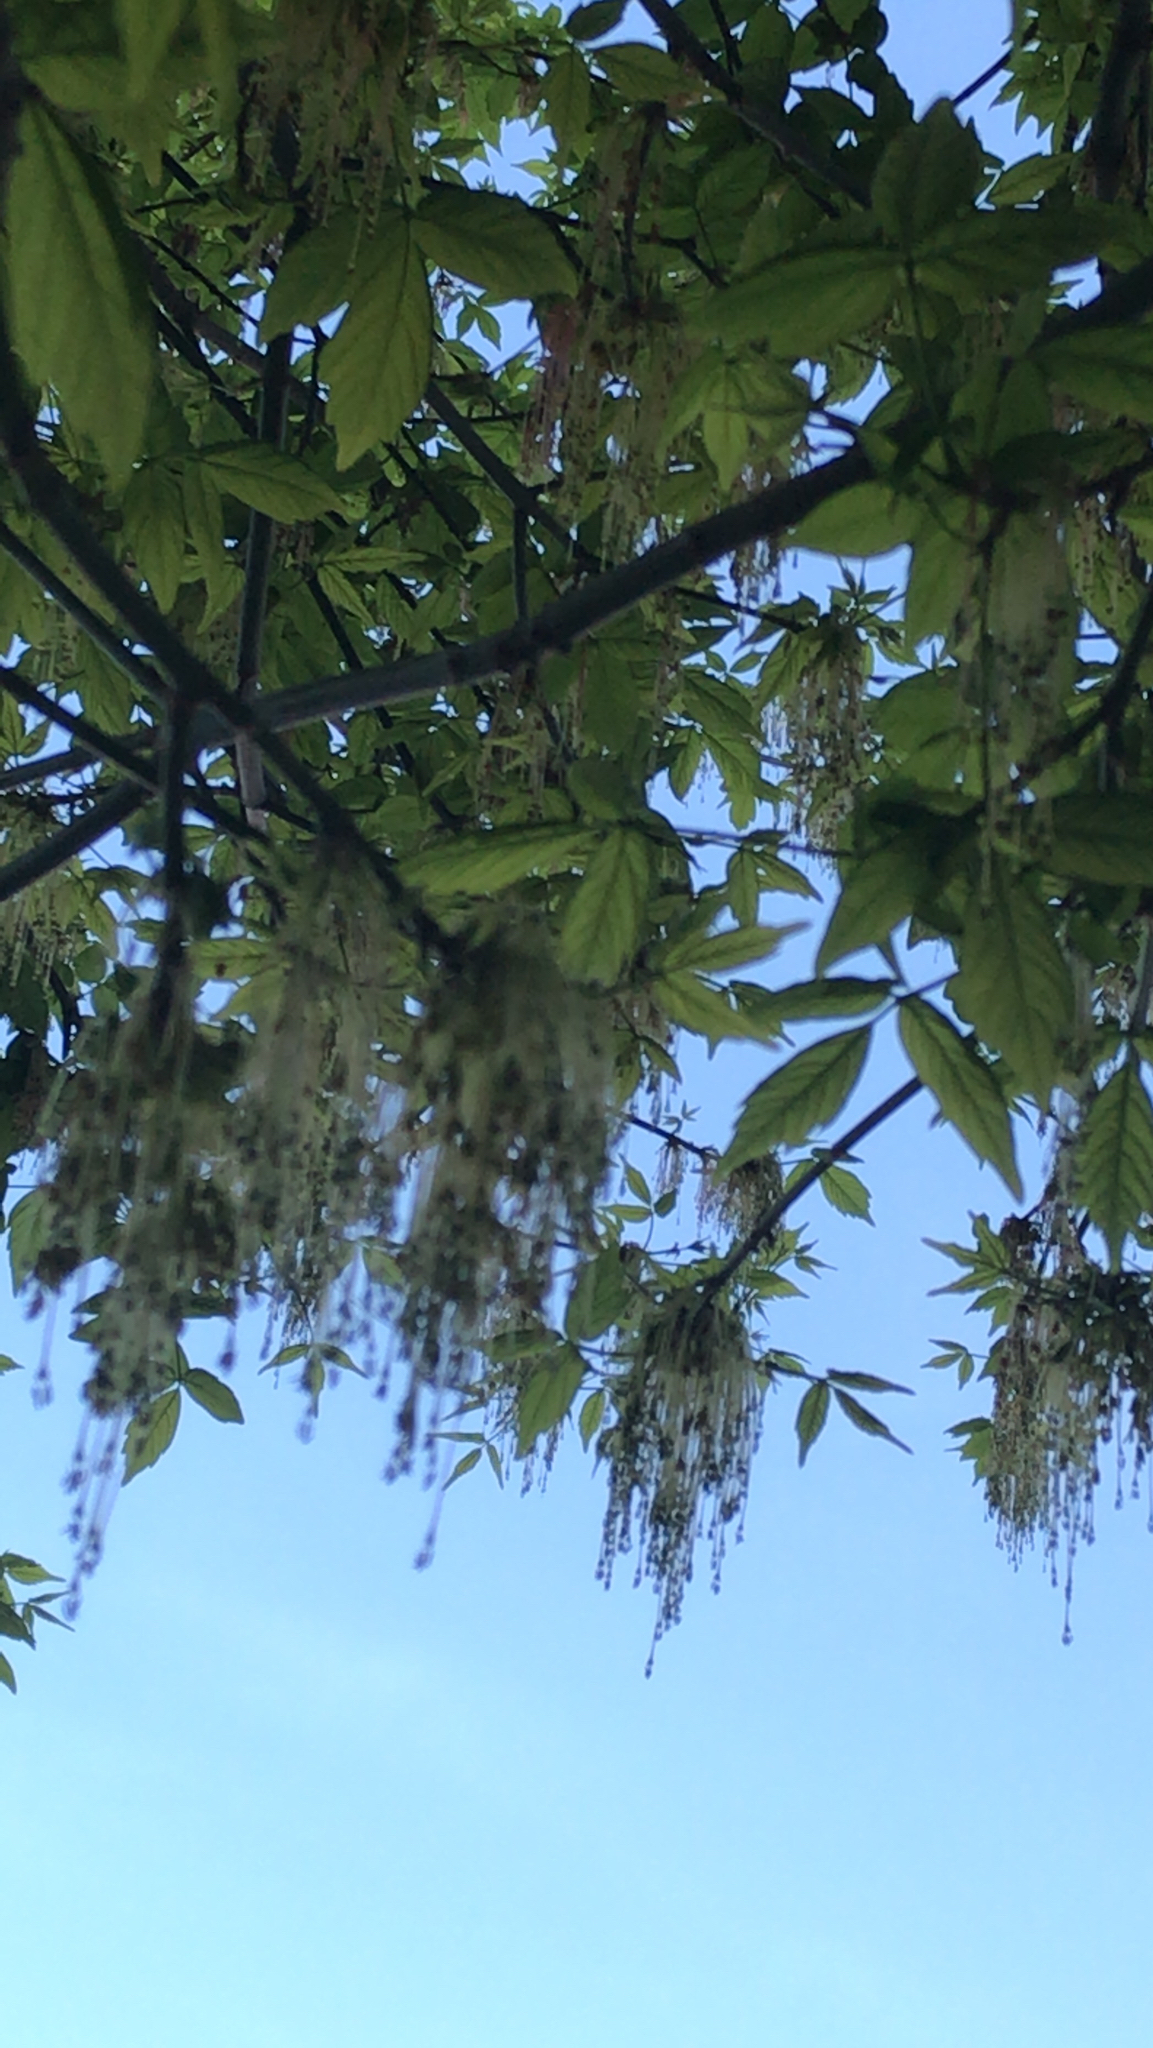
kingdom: Plantae
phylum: Tracheophyta
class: Magnoliopsida
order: Sapindales
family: Sapindaceae
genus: Acer
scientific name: Acer negundo
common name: Ashleaf maple
